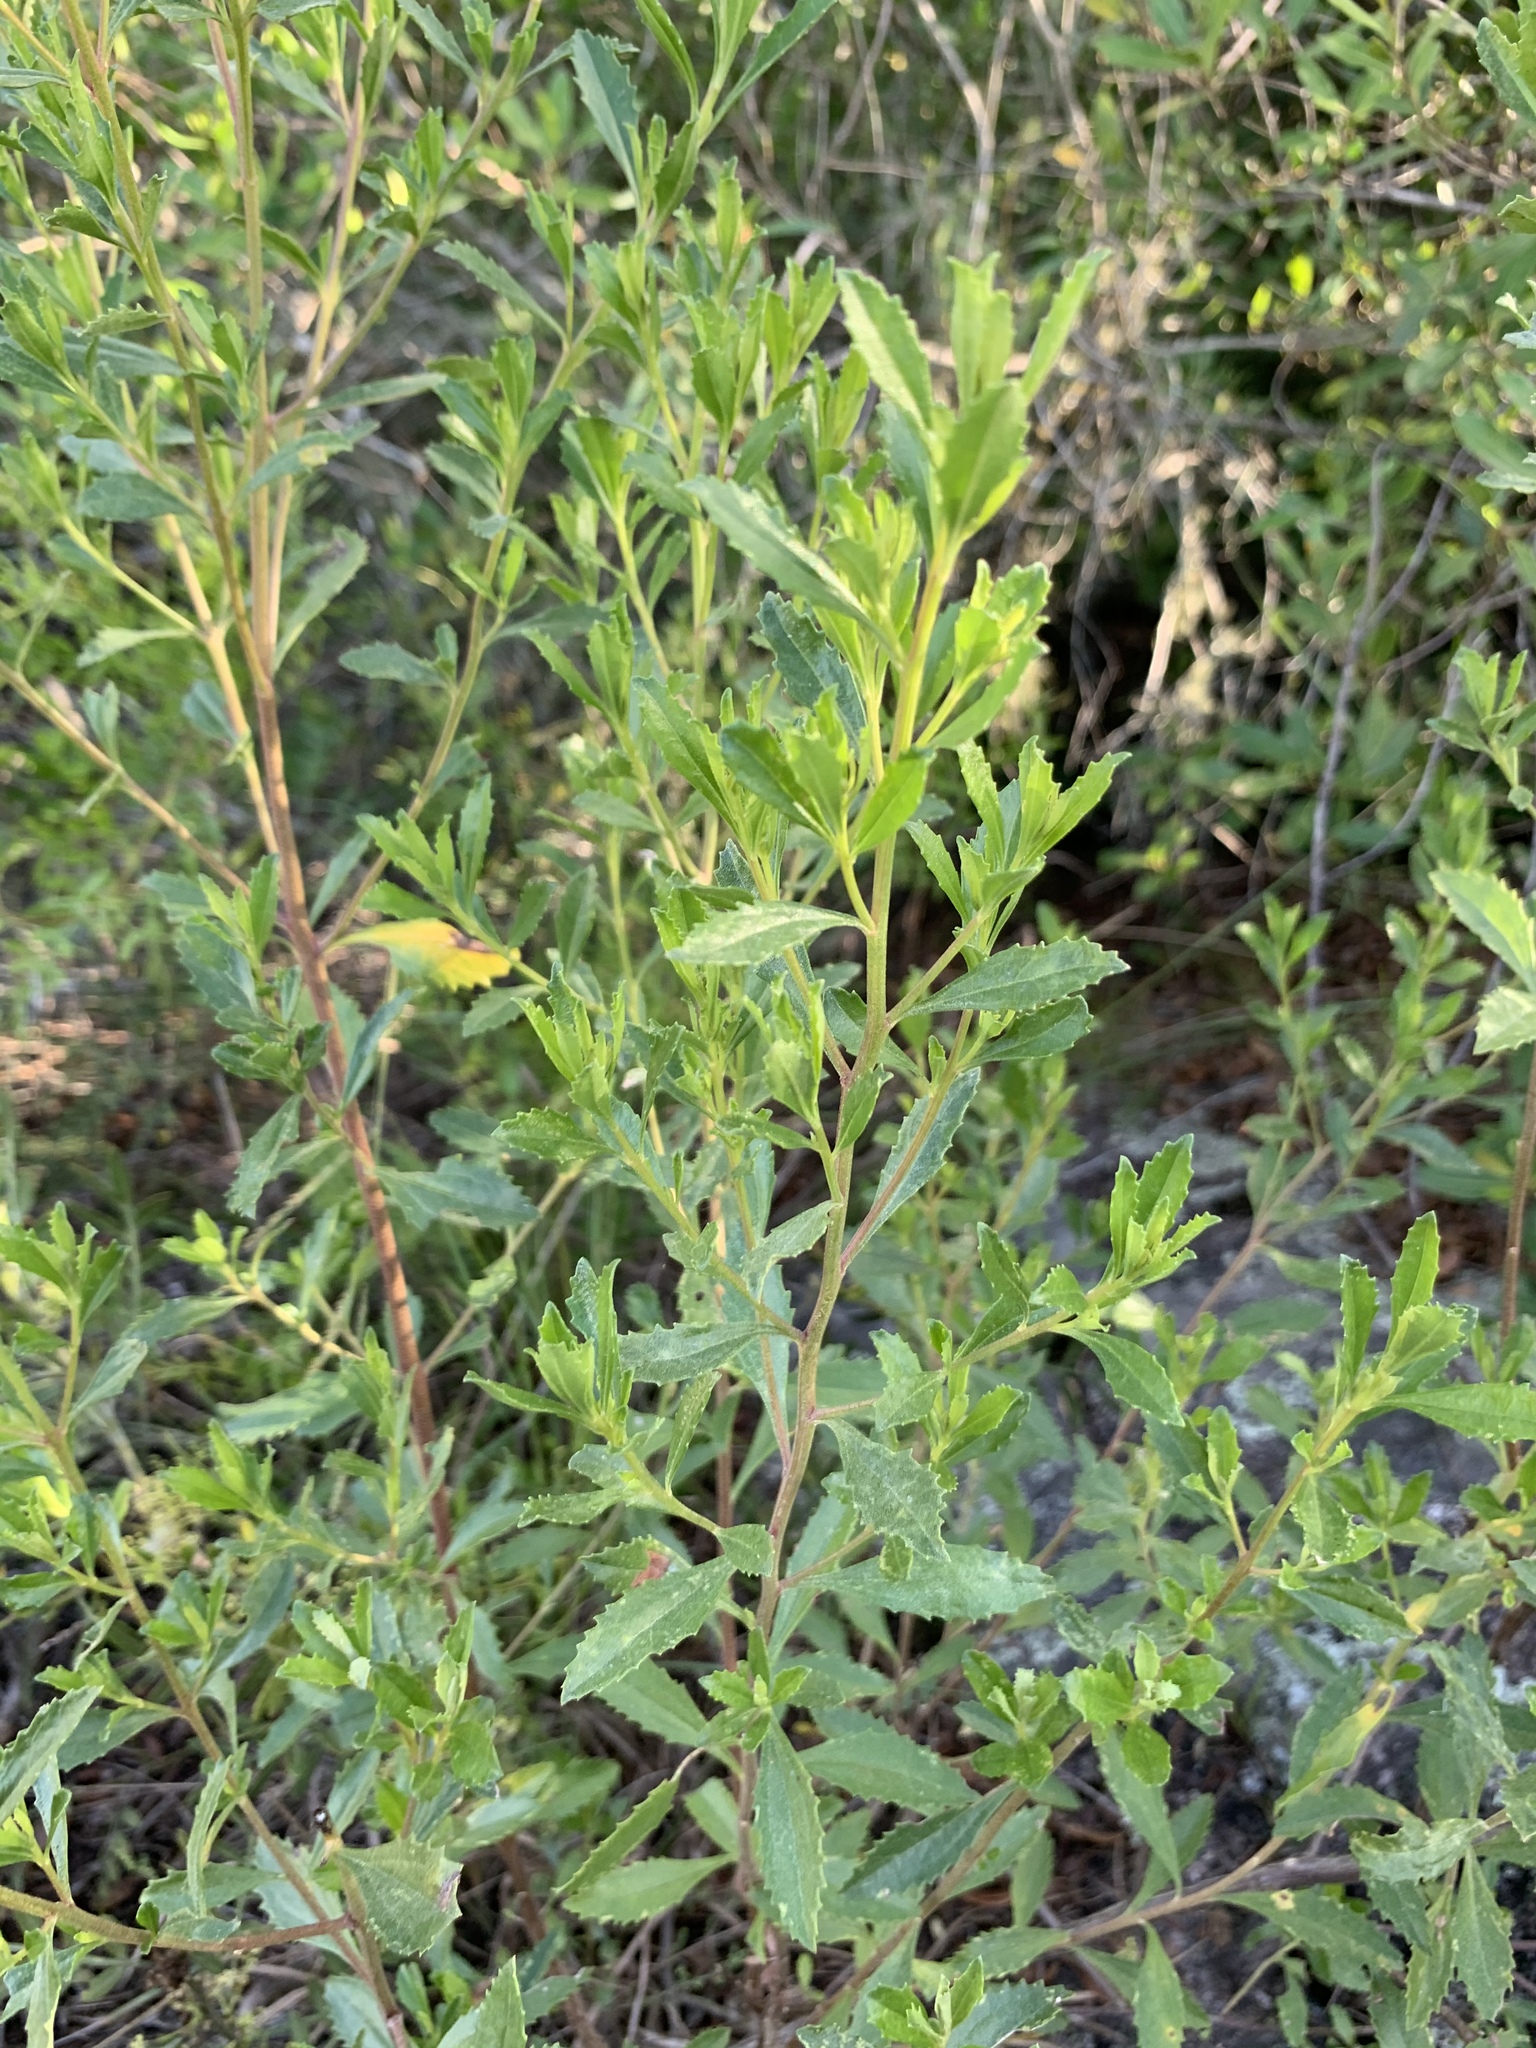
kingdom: Plantae
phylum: Tracheophyta
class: Magnoliopsida
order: Asterales
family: Asteraceae
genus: Baccharis
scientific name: Baccharis microdonta
